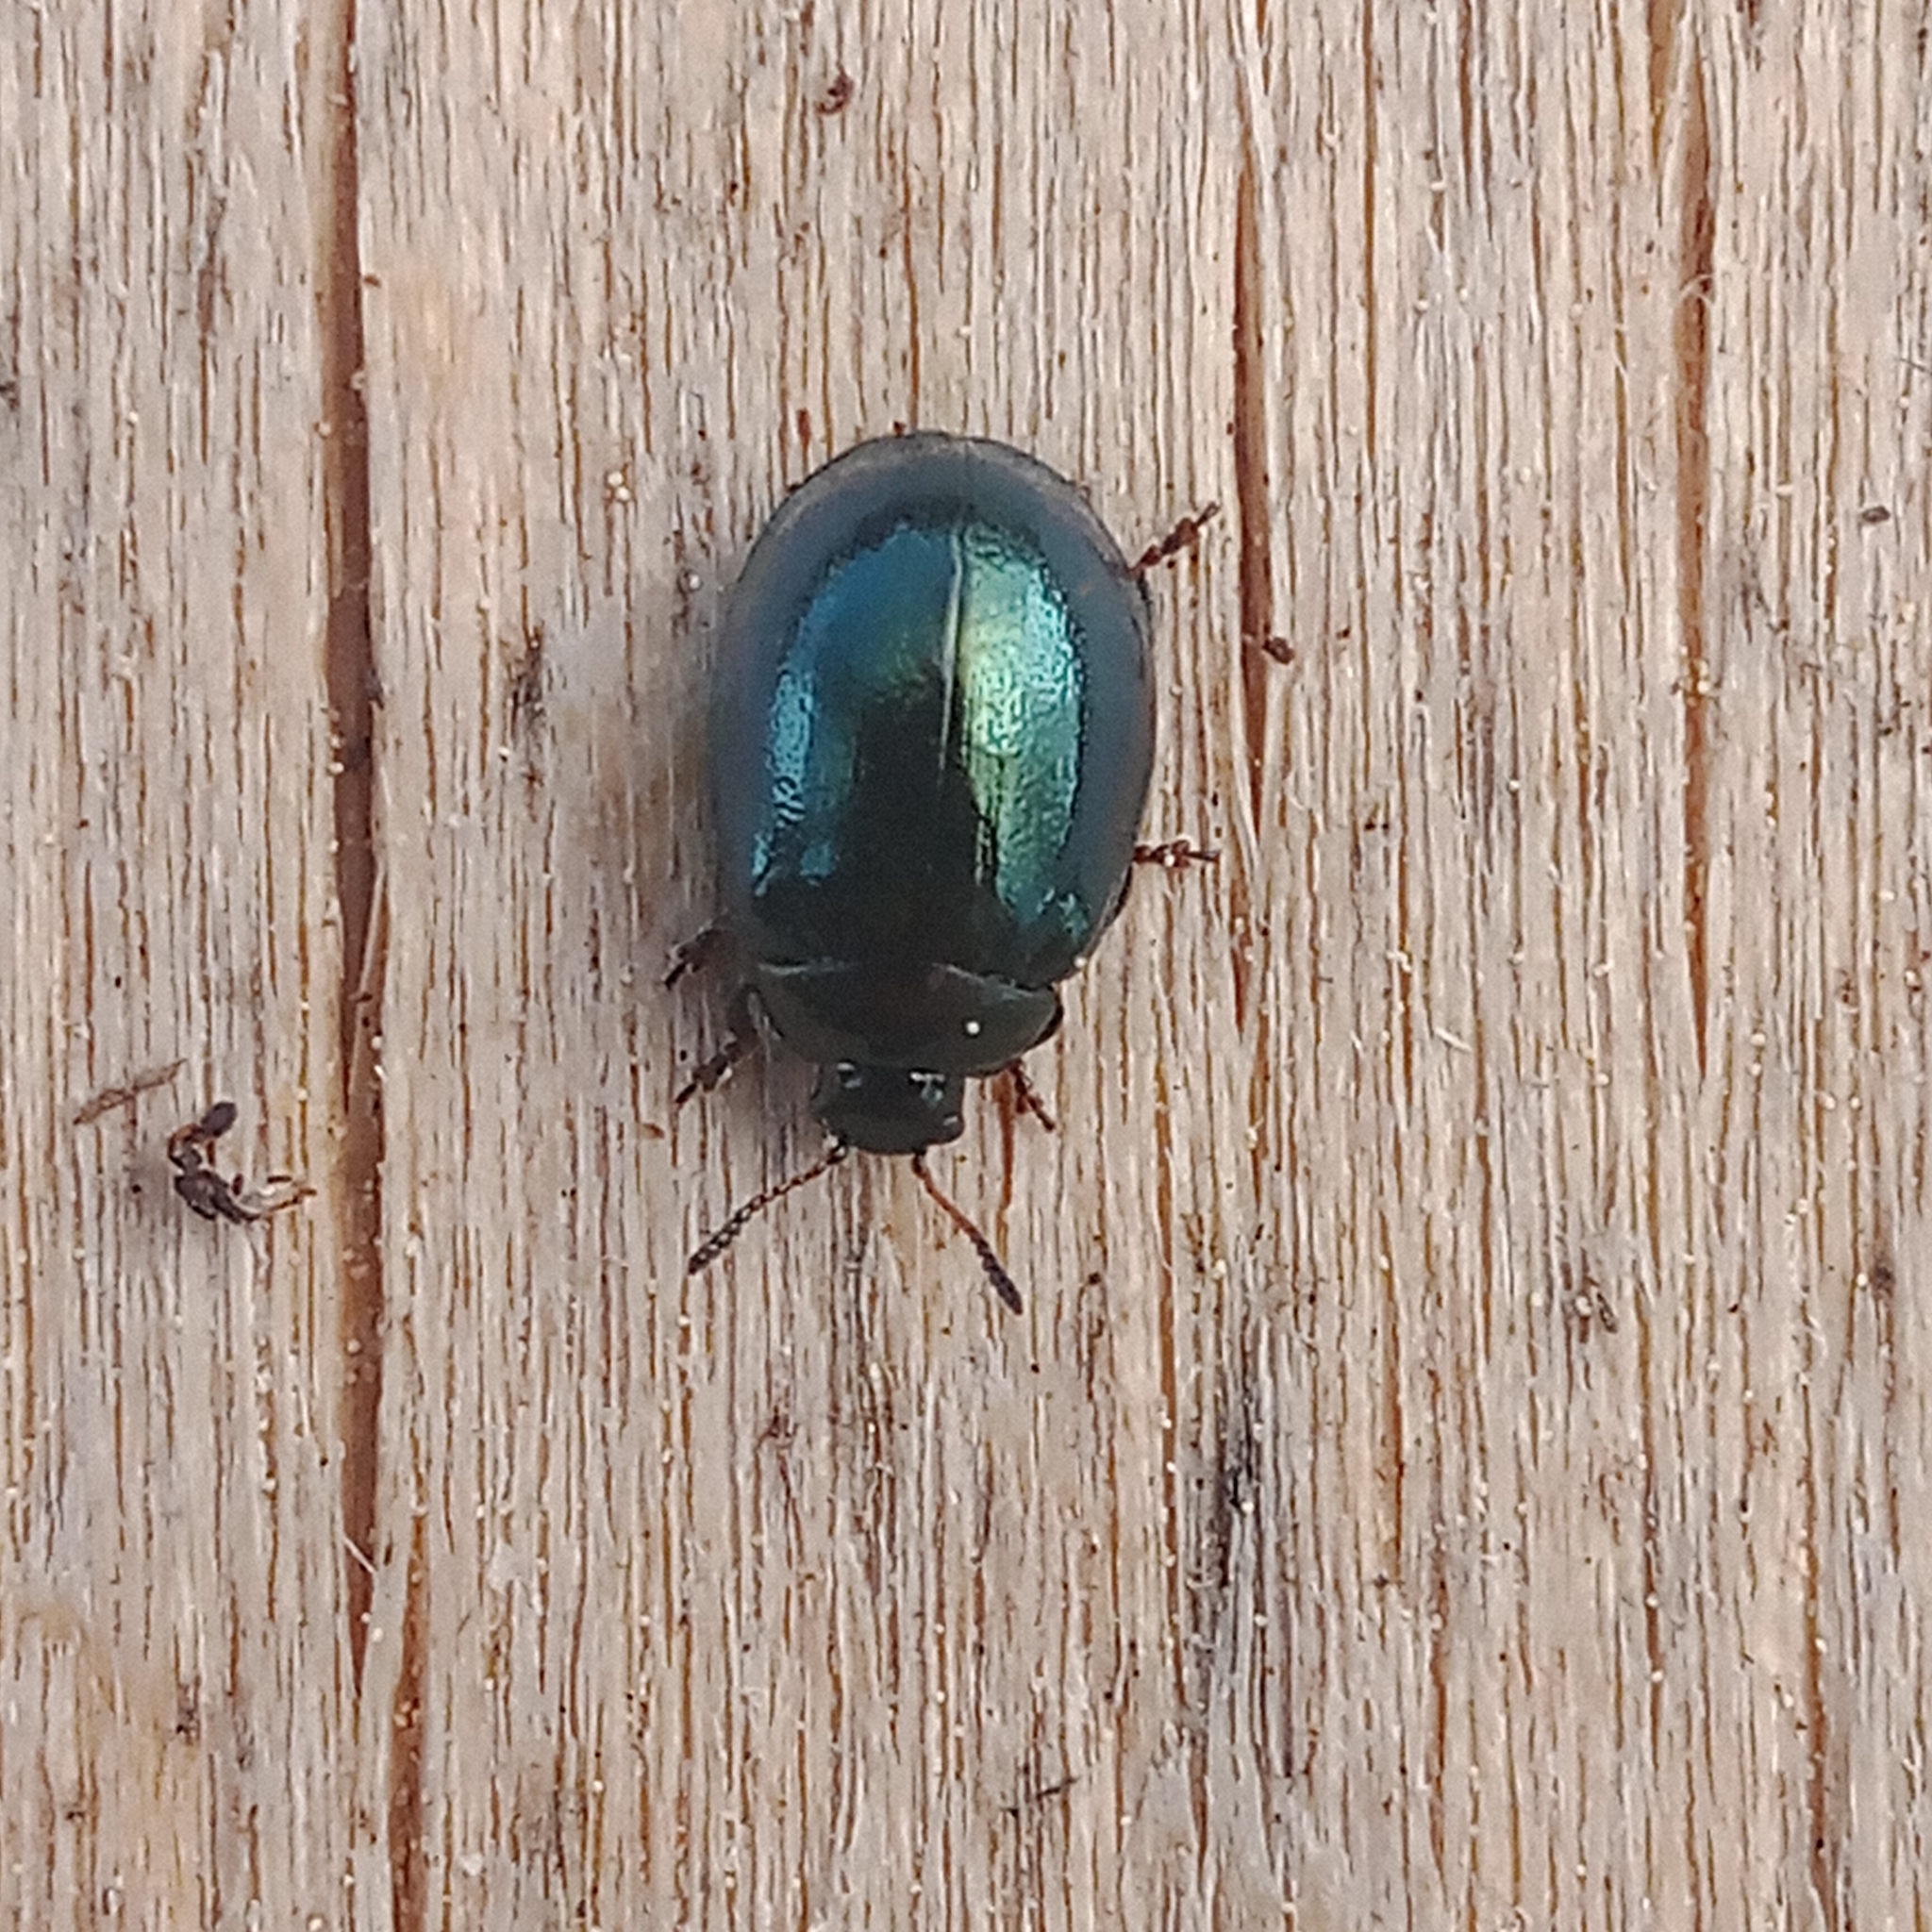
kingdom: Animalia
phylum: Arthropoda
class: Insecta
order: Coleoptera
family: Chrysomelidae
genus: Plagiodera
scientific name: Plagiodera versicolora
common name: Imported willow leaf beetle
